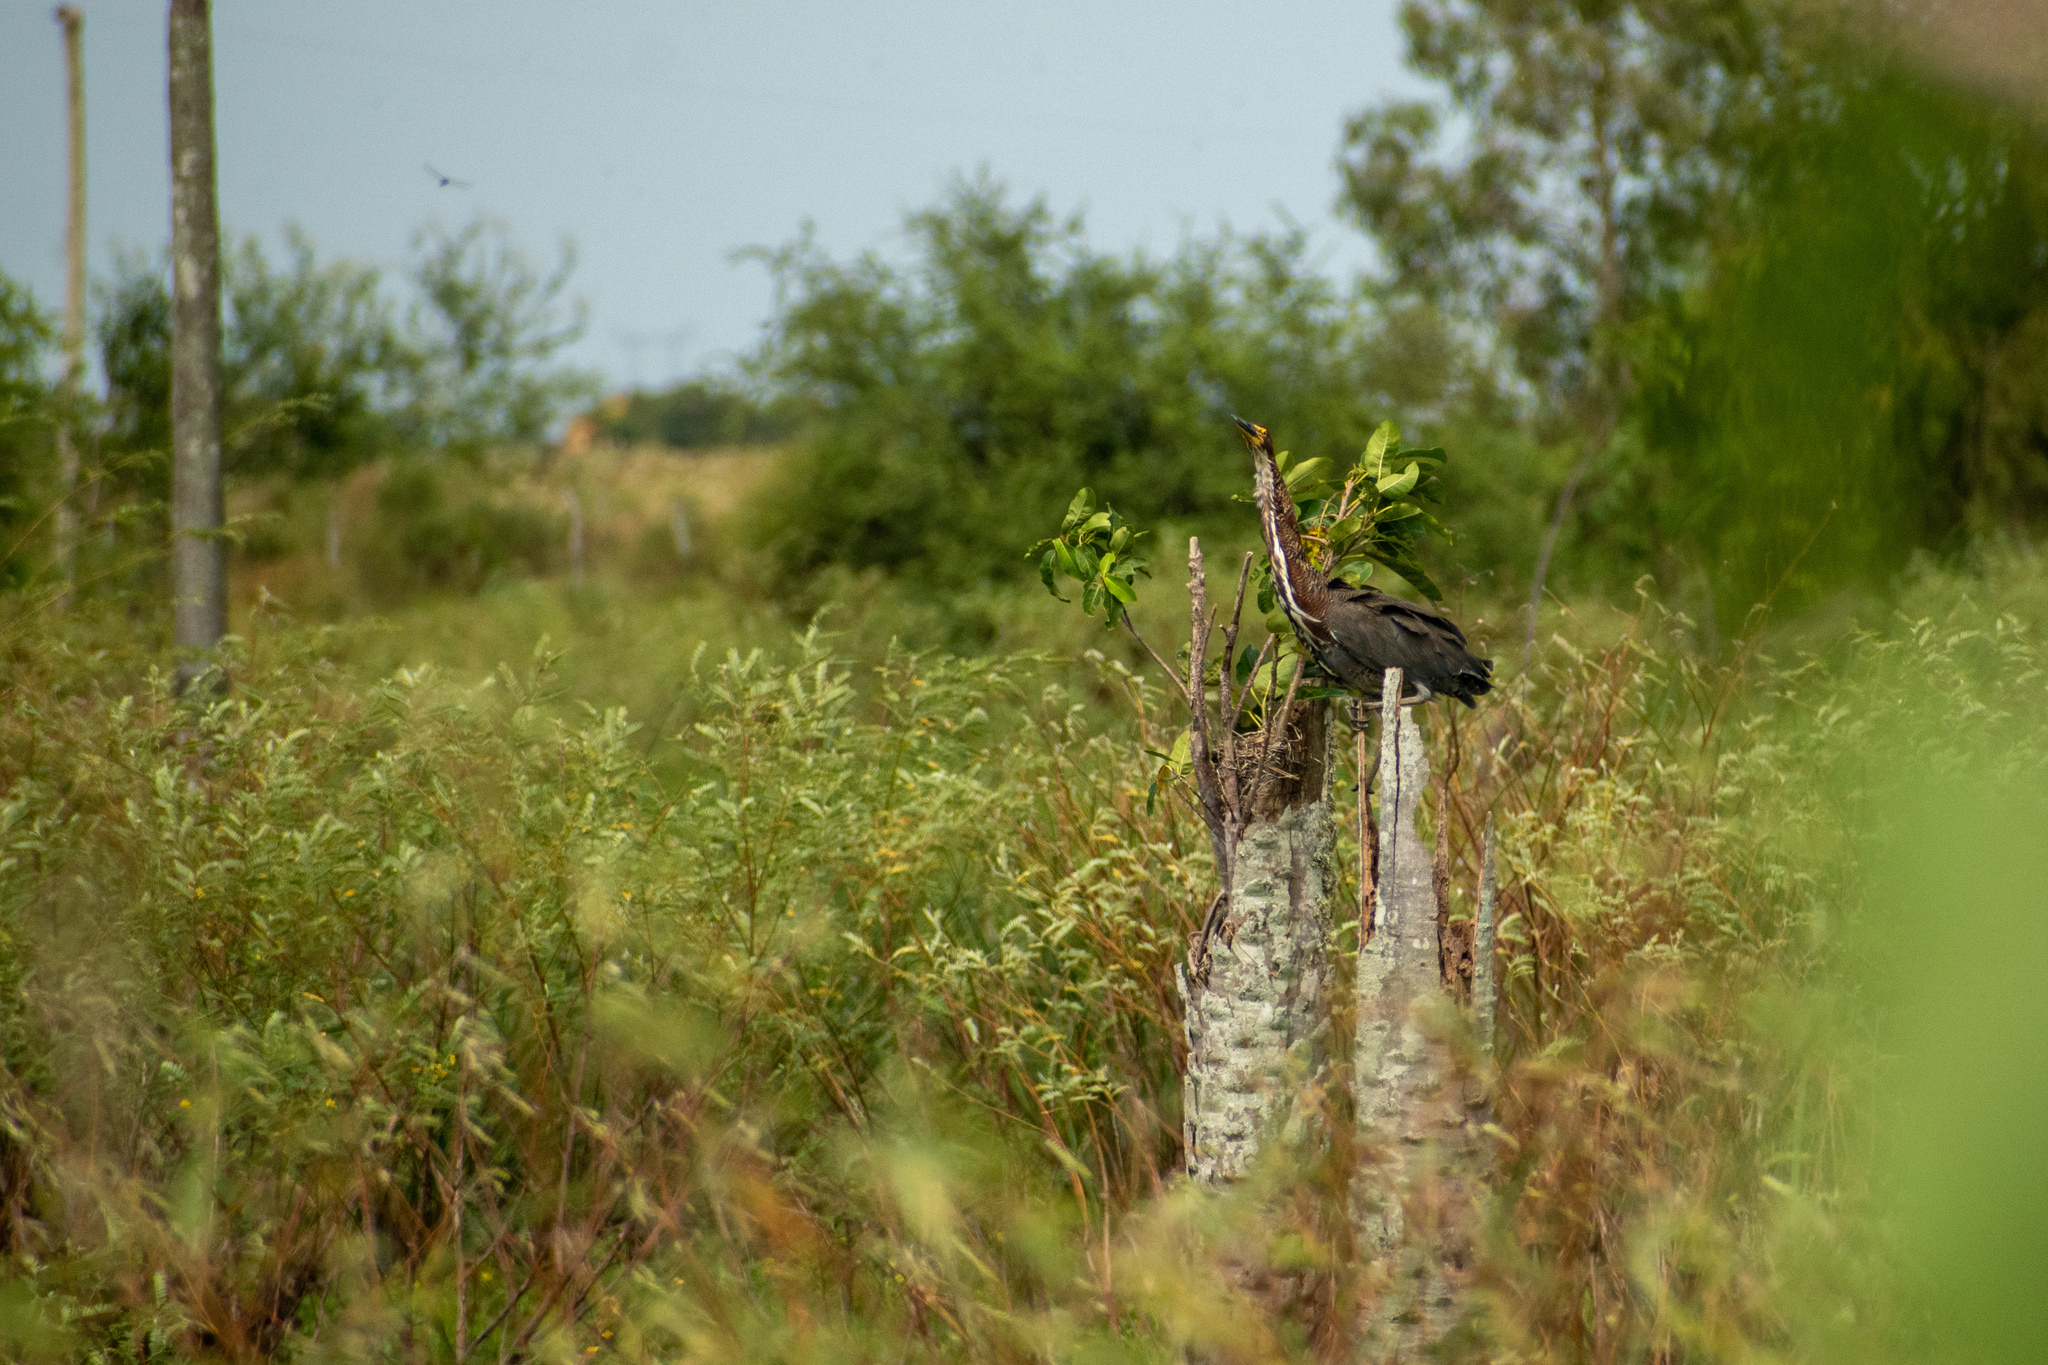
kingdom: Animalia
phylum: Chordata
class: Aves
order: Pelecaniformes
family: Ardeidae
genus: Tigrisoma
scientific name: Tigrisoma lineatum
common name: Rufescent tiger-heron
